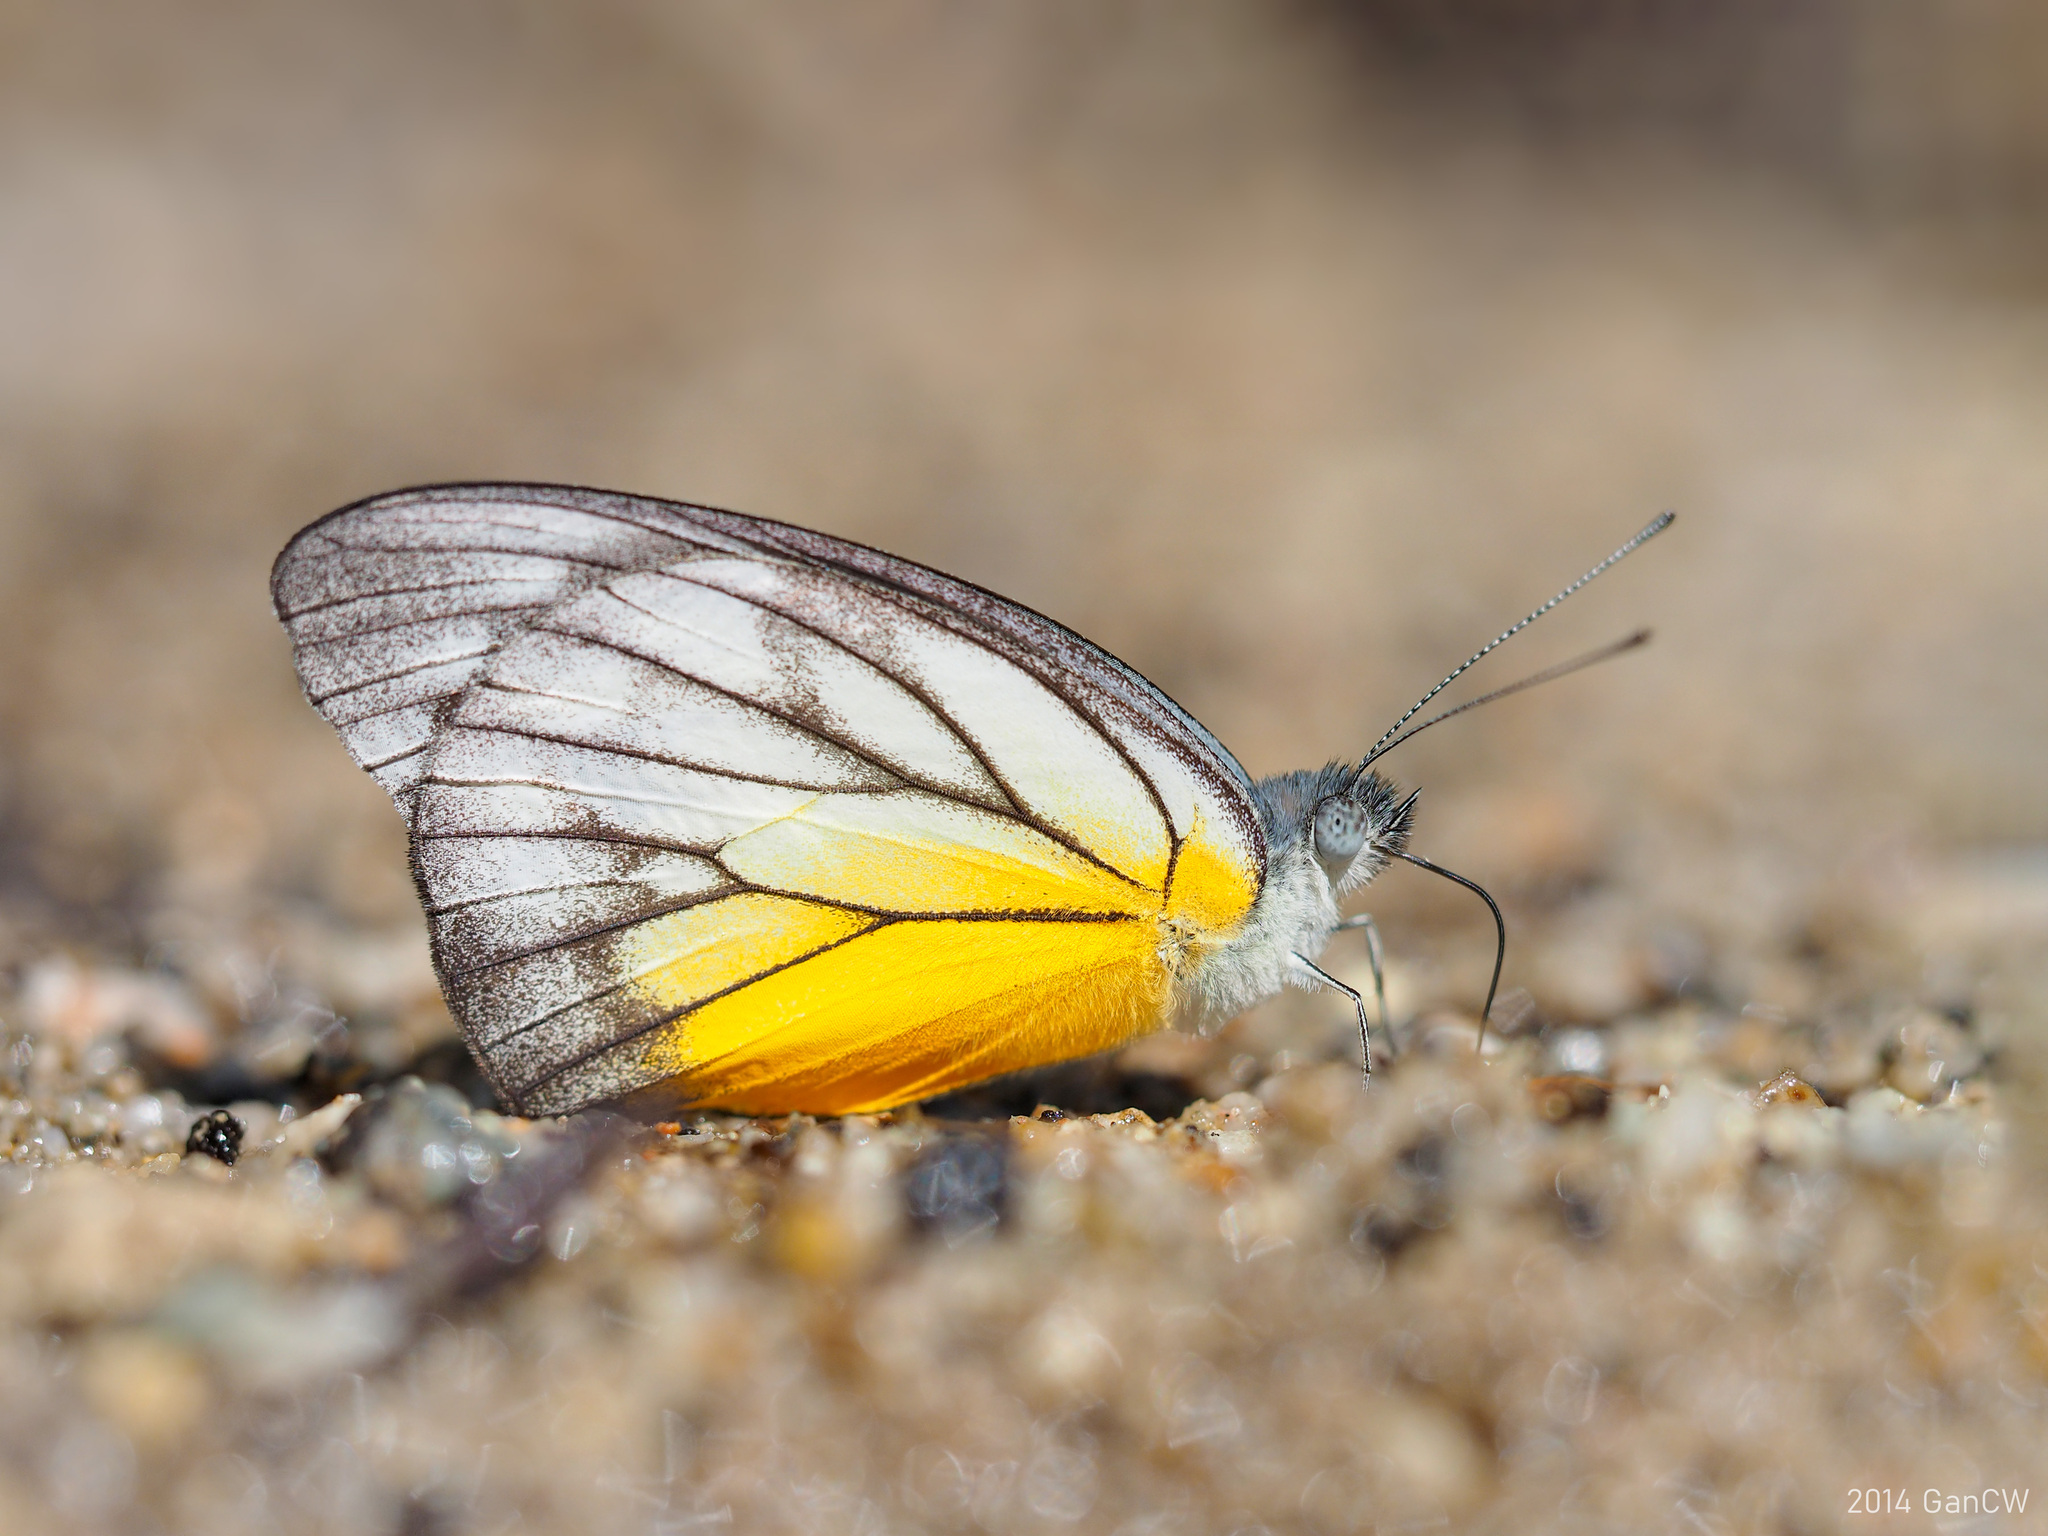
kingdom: Animalia
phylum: Arthropoda
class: Insecta
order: Lepidoptera
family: Pieridae
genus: Appias
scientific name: Appias cardena
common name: Yellow puffin
